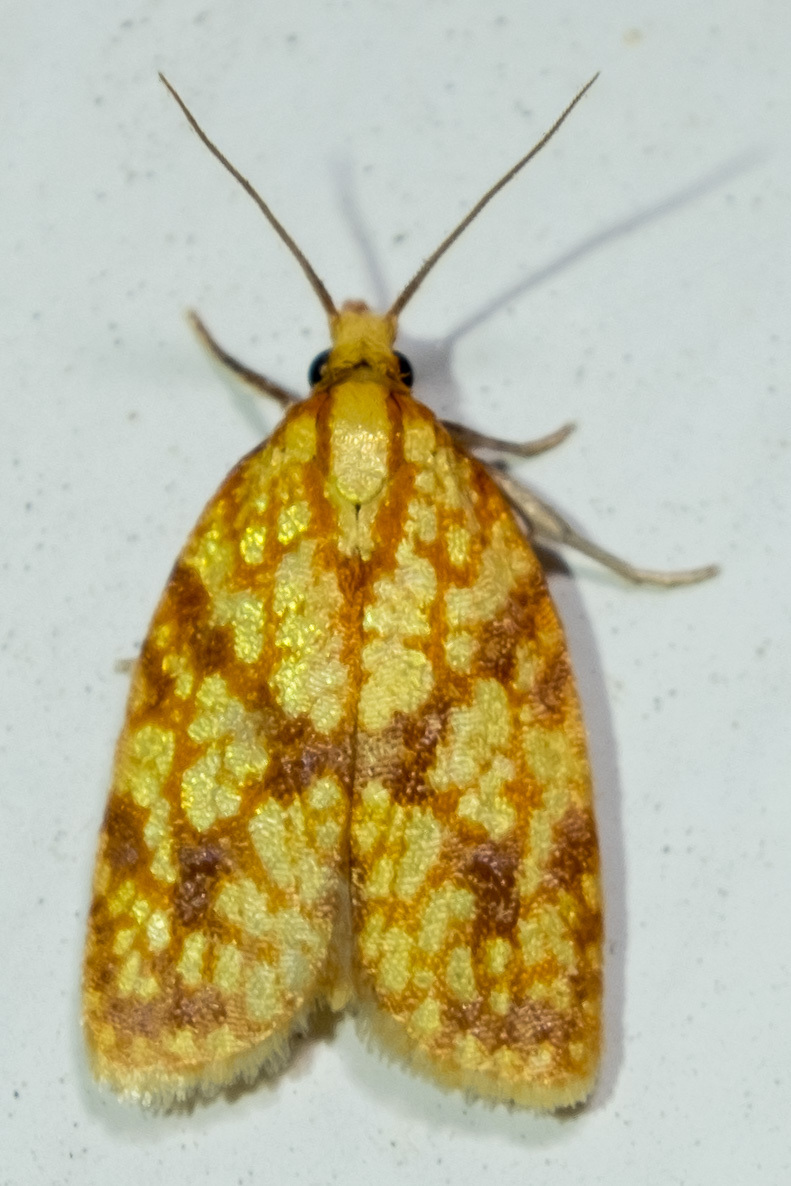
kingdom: Animalia
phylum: Arthropoda
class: Insecta
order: Lepidoptera
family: Tortricidae
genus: Sparganothis
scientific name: Sparganothis sulfureana
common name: Sparganothis fruitworm moth
